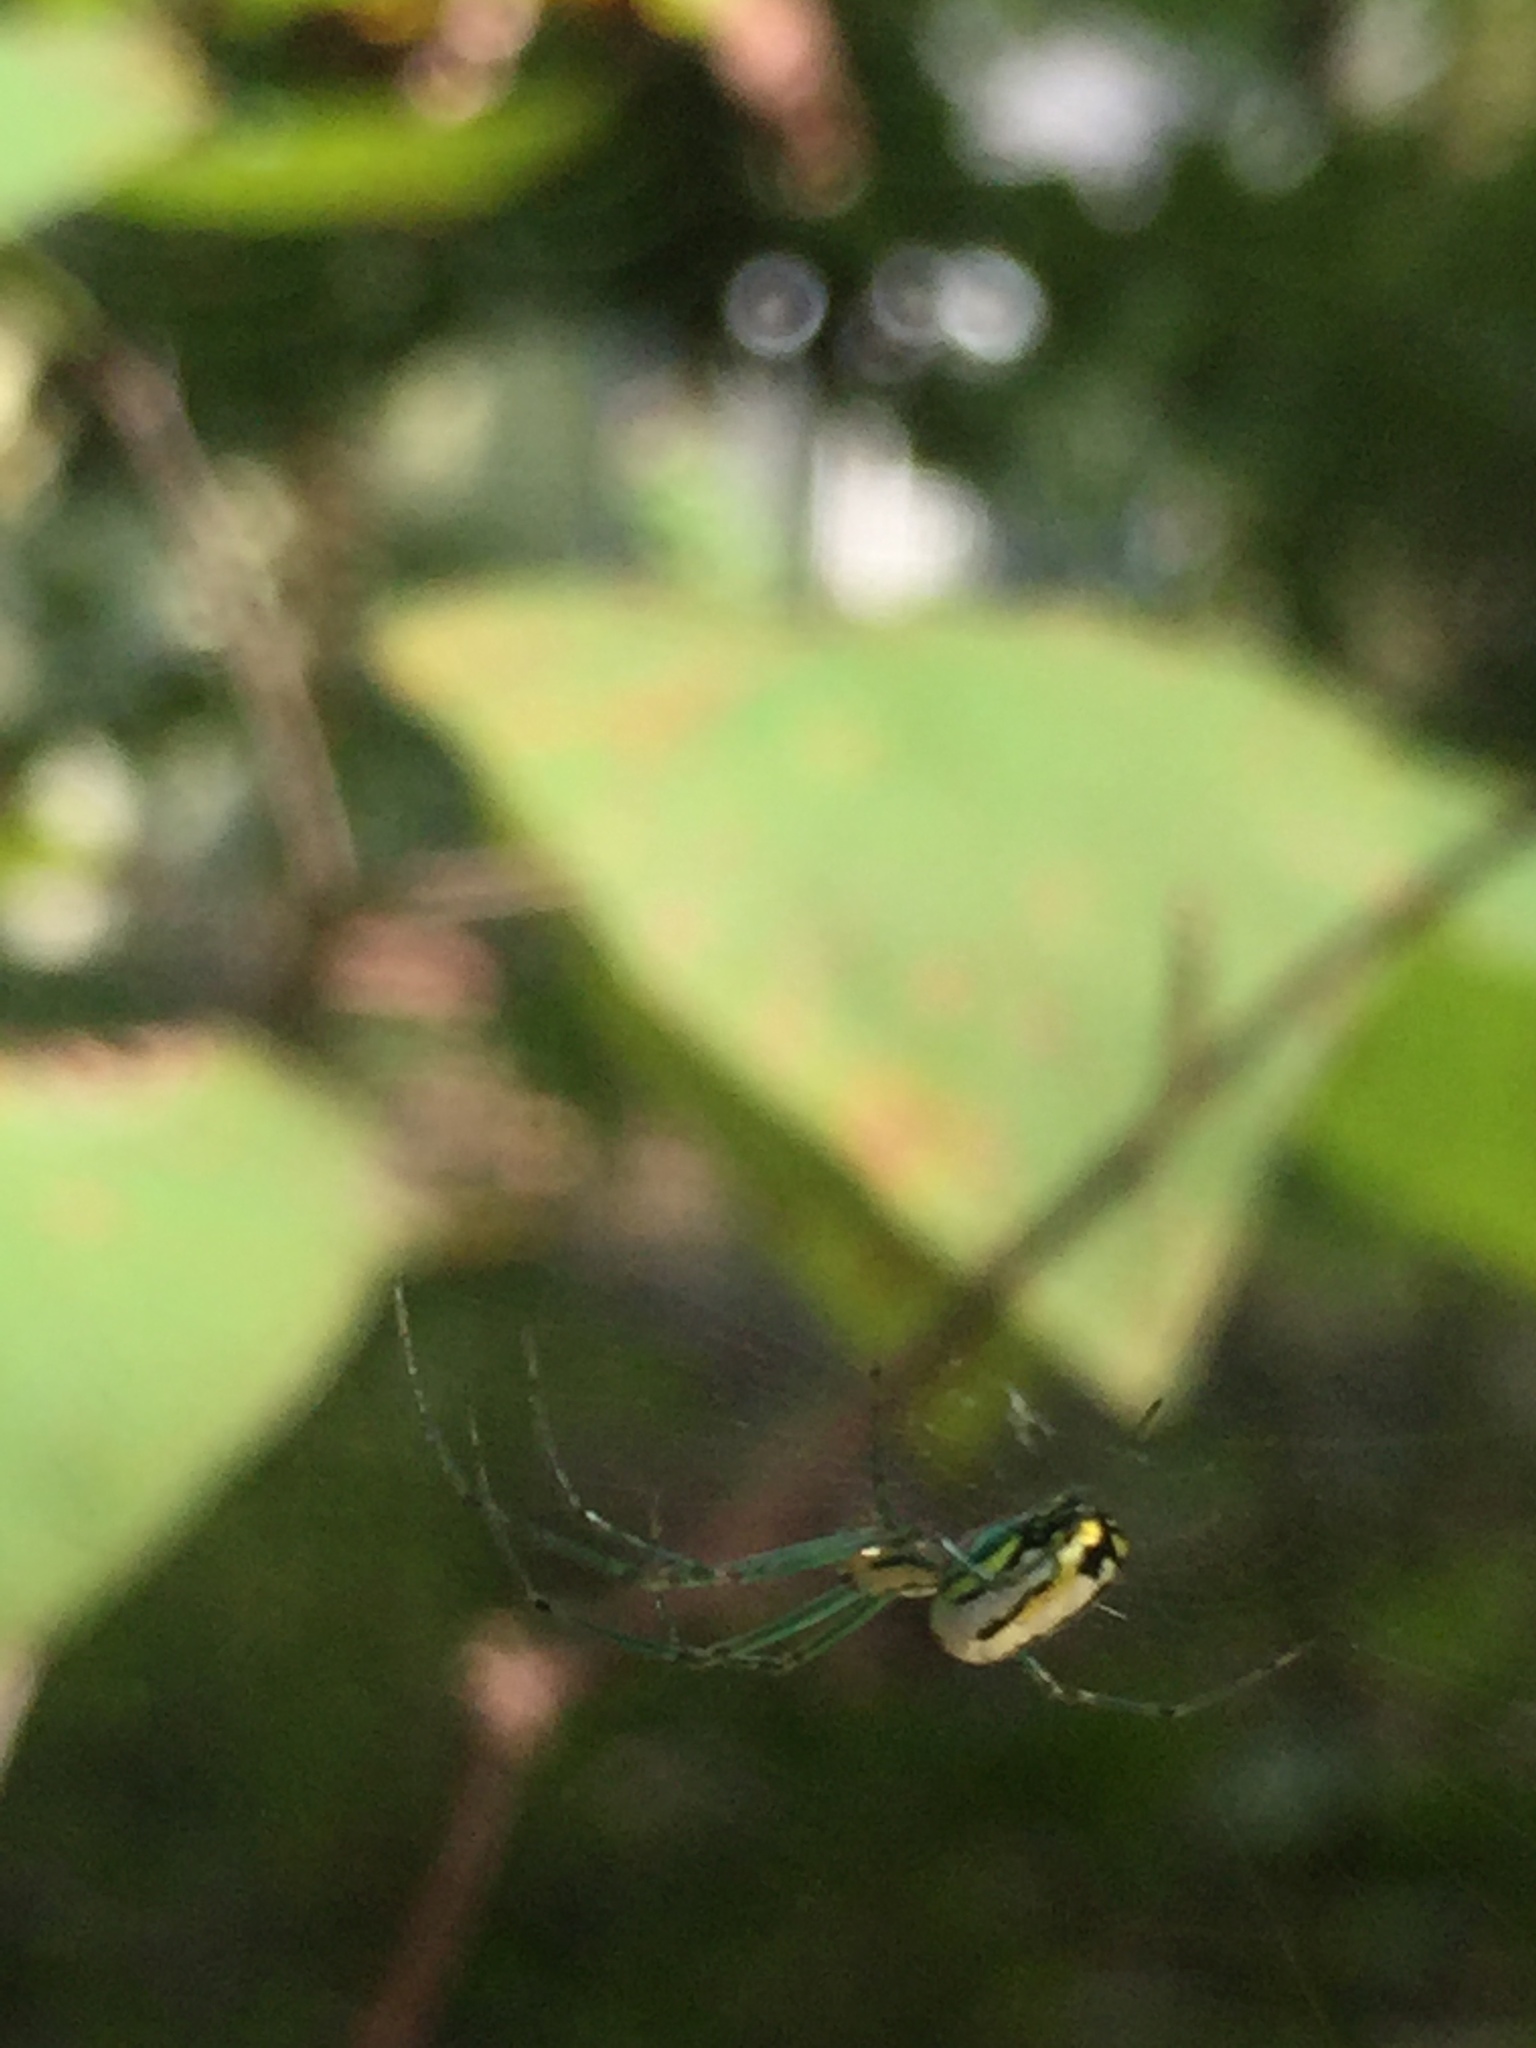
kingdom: Animalia
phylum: Arthropoda
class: Arachnida
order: Araneae
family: Tetragnathidae
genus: Leucauge
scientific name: Leucauge
